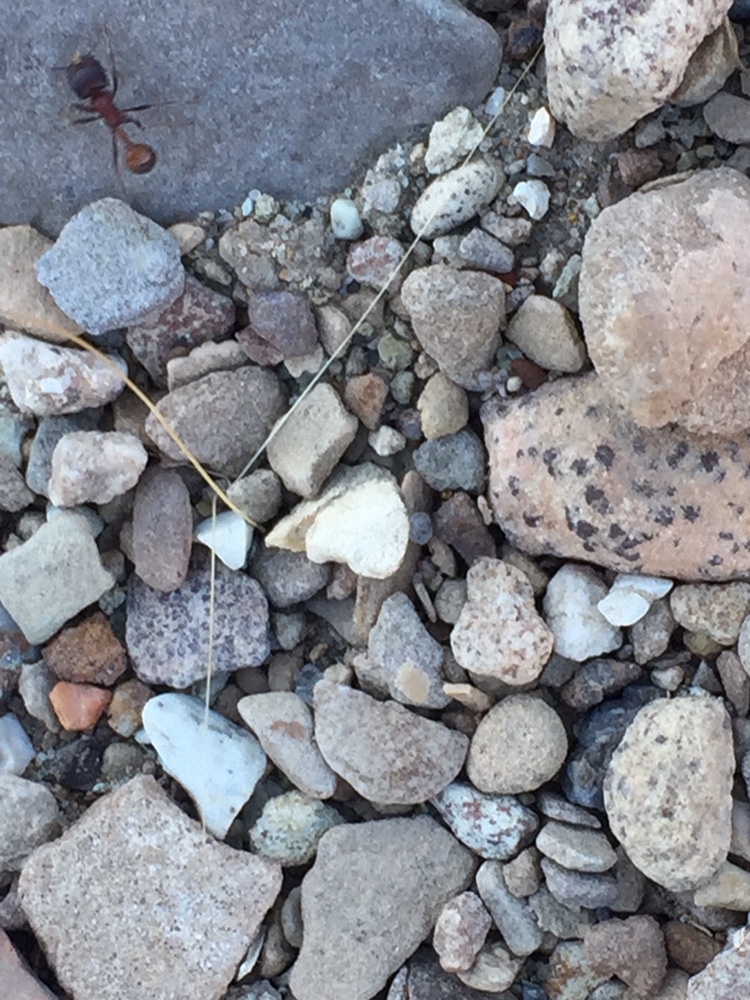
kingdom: Animalia
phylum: Arthropoda
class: Insecta
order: Hymenoptera
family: Formicidae
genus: Pogonomyrmex
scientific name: Pogonomyrmex rugosus
